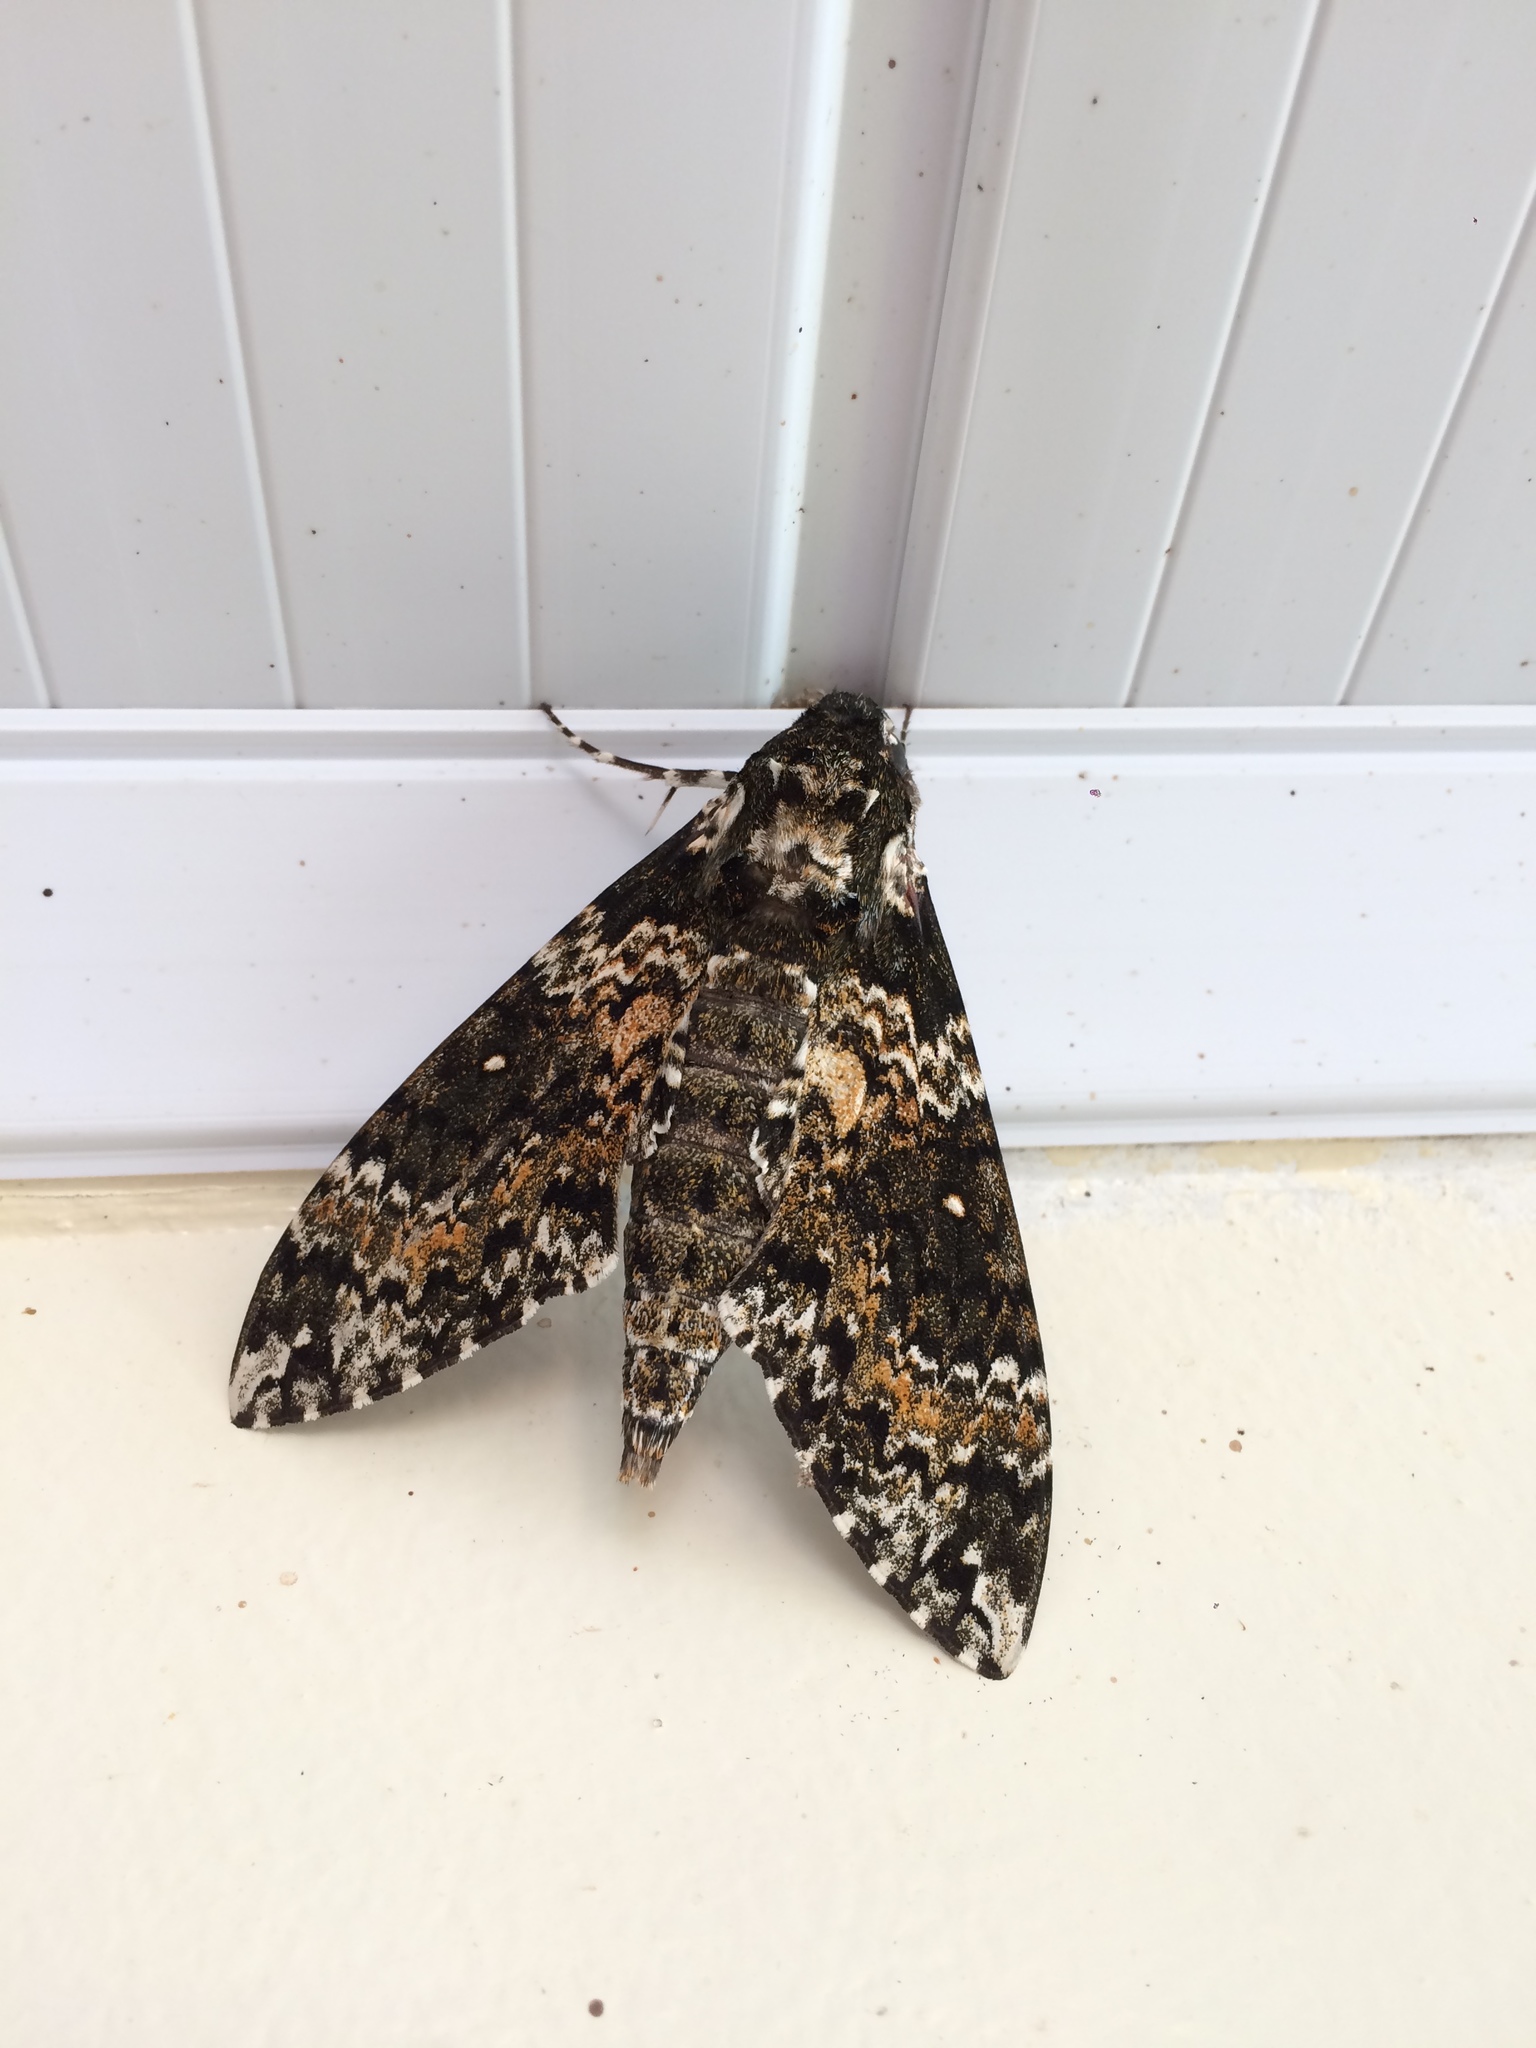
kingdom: Animalia
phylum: Arthropoda
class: Insecta
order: Lepidoptera
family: Sphingidae
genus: Manduca
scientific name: Manduca rustica
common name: Rustic sphinx
